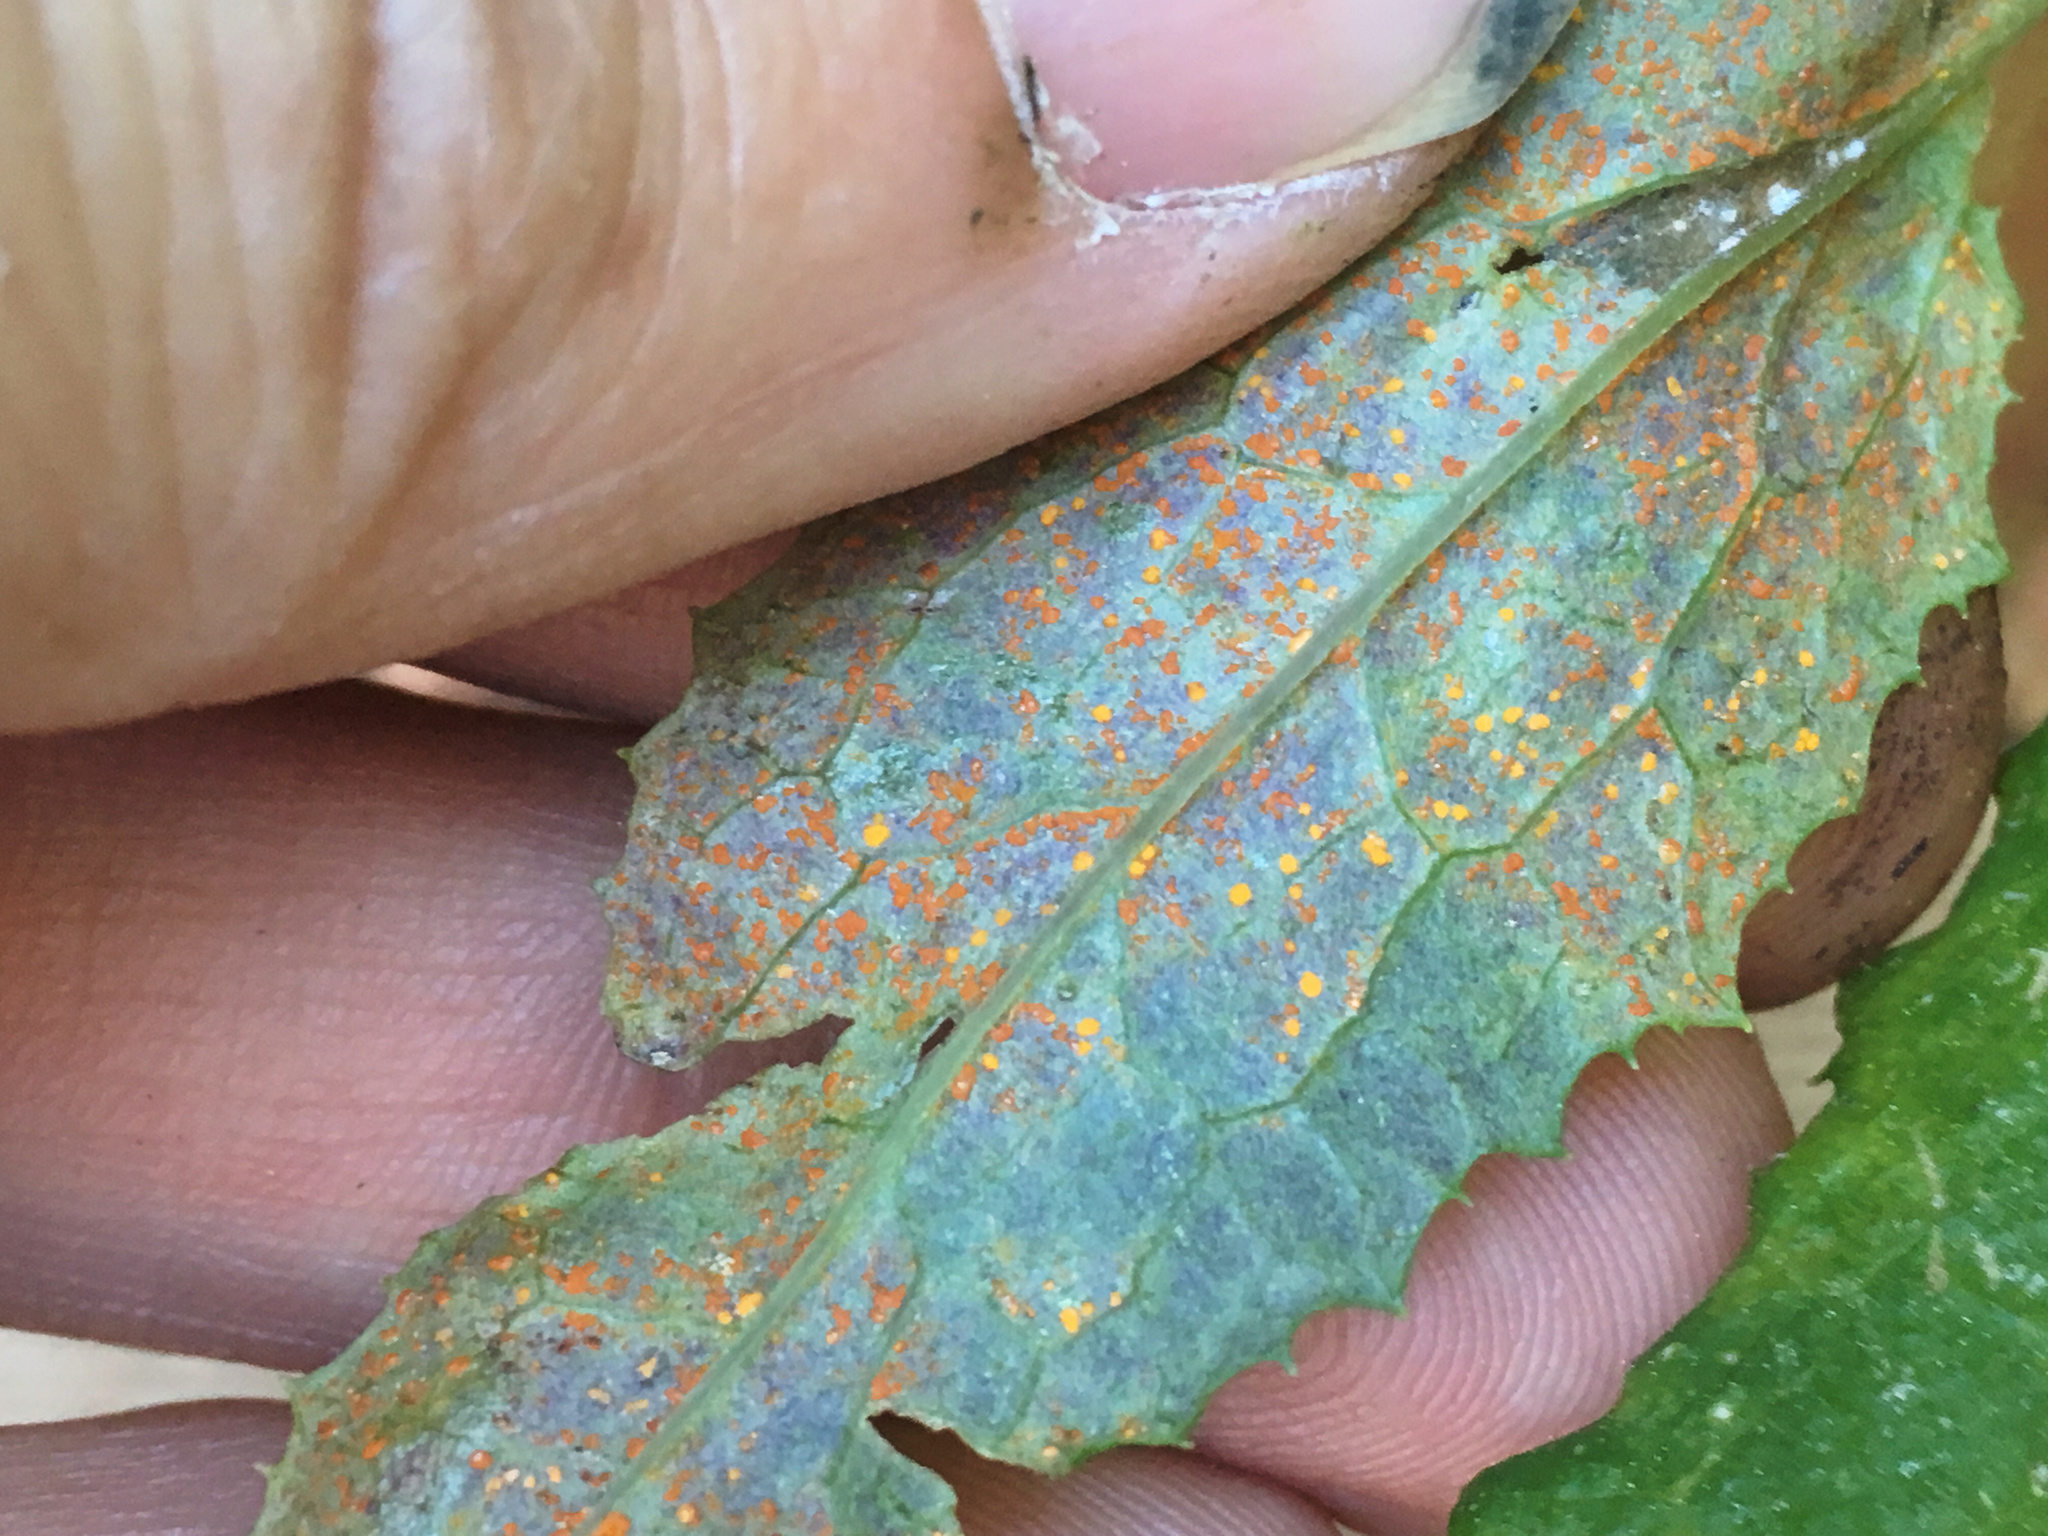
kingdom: Fungi
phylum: Basidiomycota
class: Pucciniomycetes
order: Pucciniales
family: Coleosporiaceae
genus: Coleosporium
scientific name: Coleosporium tussilaginis
